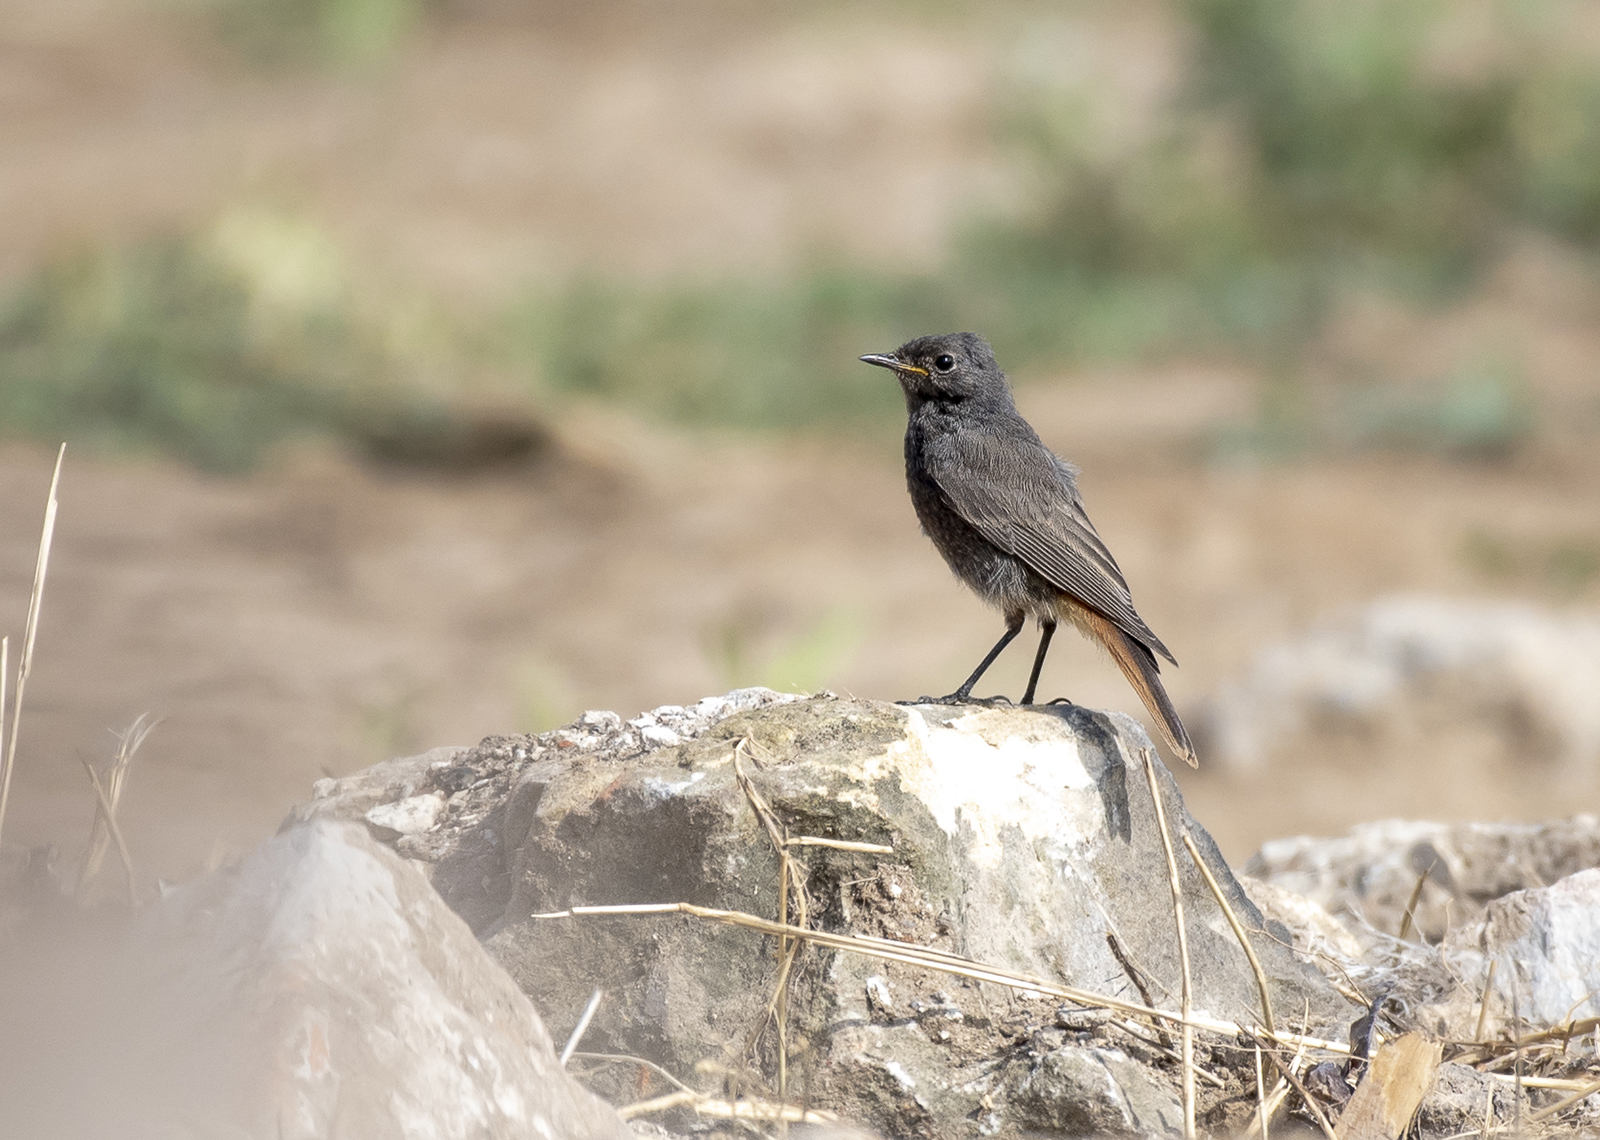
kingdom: Animalia
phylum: Chordata
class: Aves
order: Passeriformes
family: Muscicapidae
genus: Phoenicurus
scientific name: Phoenicurus ochruros
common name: Black redstart
